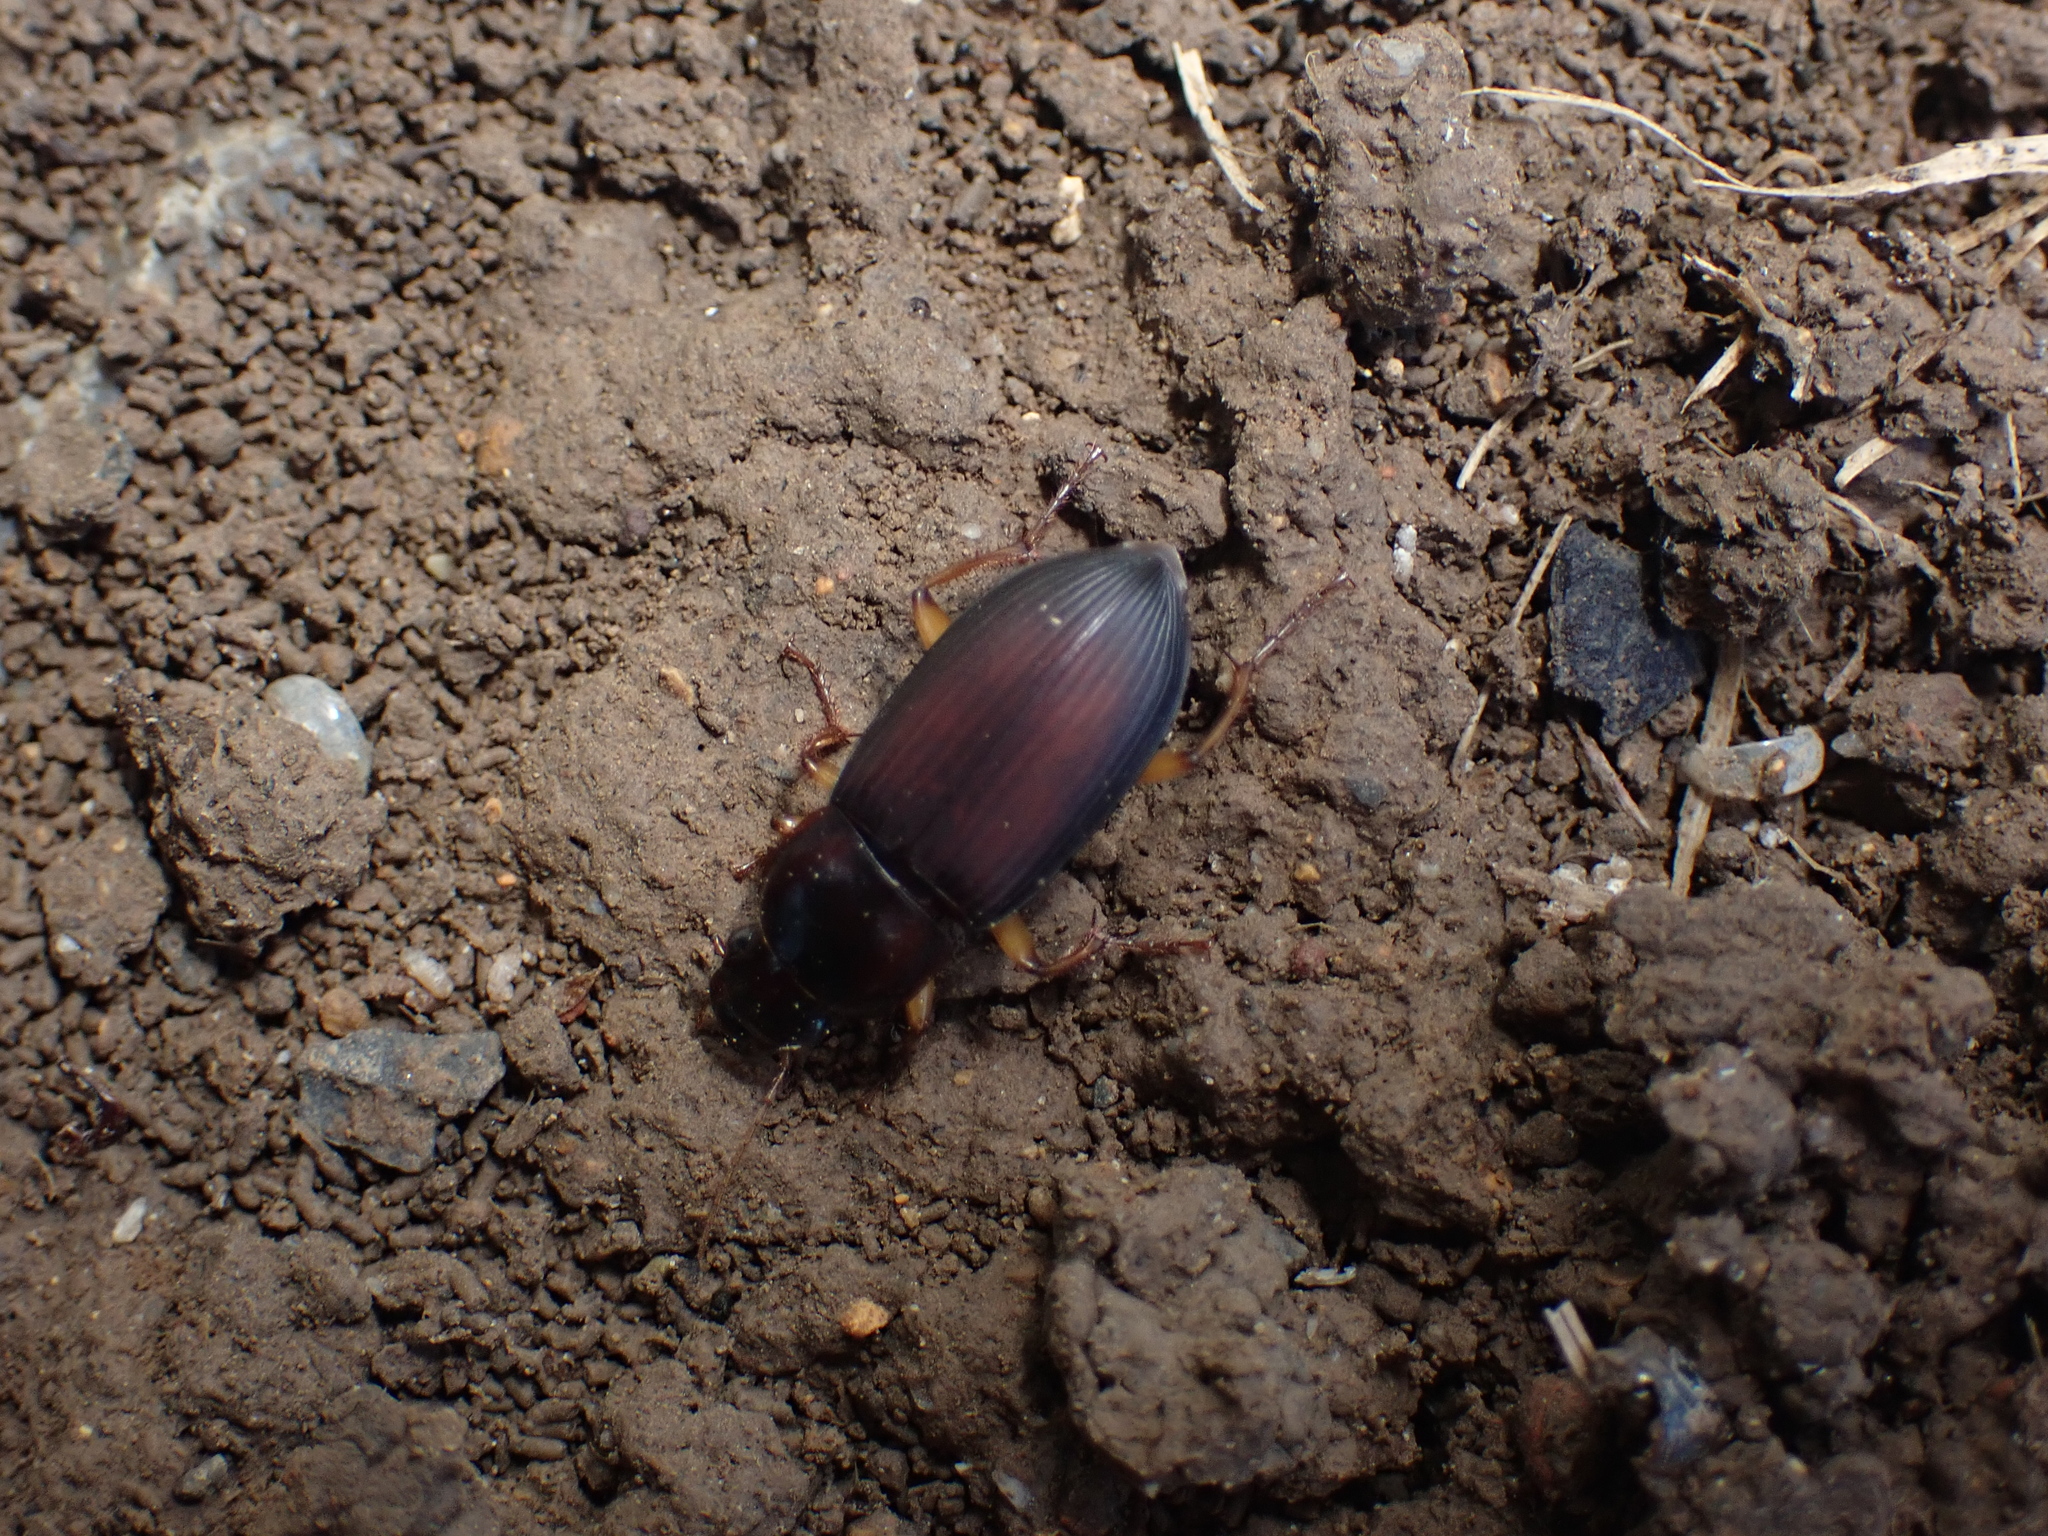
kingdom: Animalia
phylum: Arthropoda
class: Insecta
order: Coleoptera
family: Carabidae
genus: Harpalus
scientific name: Harpalus pensylvanicus
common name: Pennsylvania dingy ground beetle
